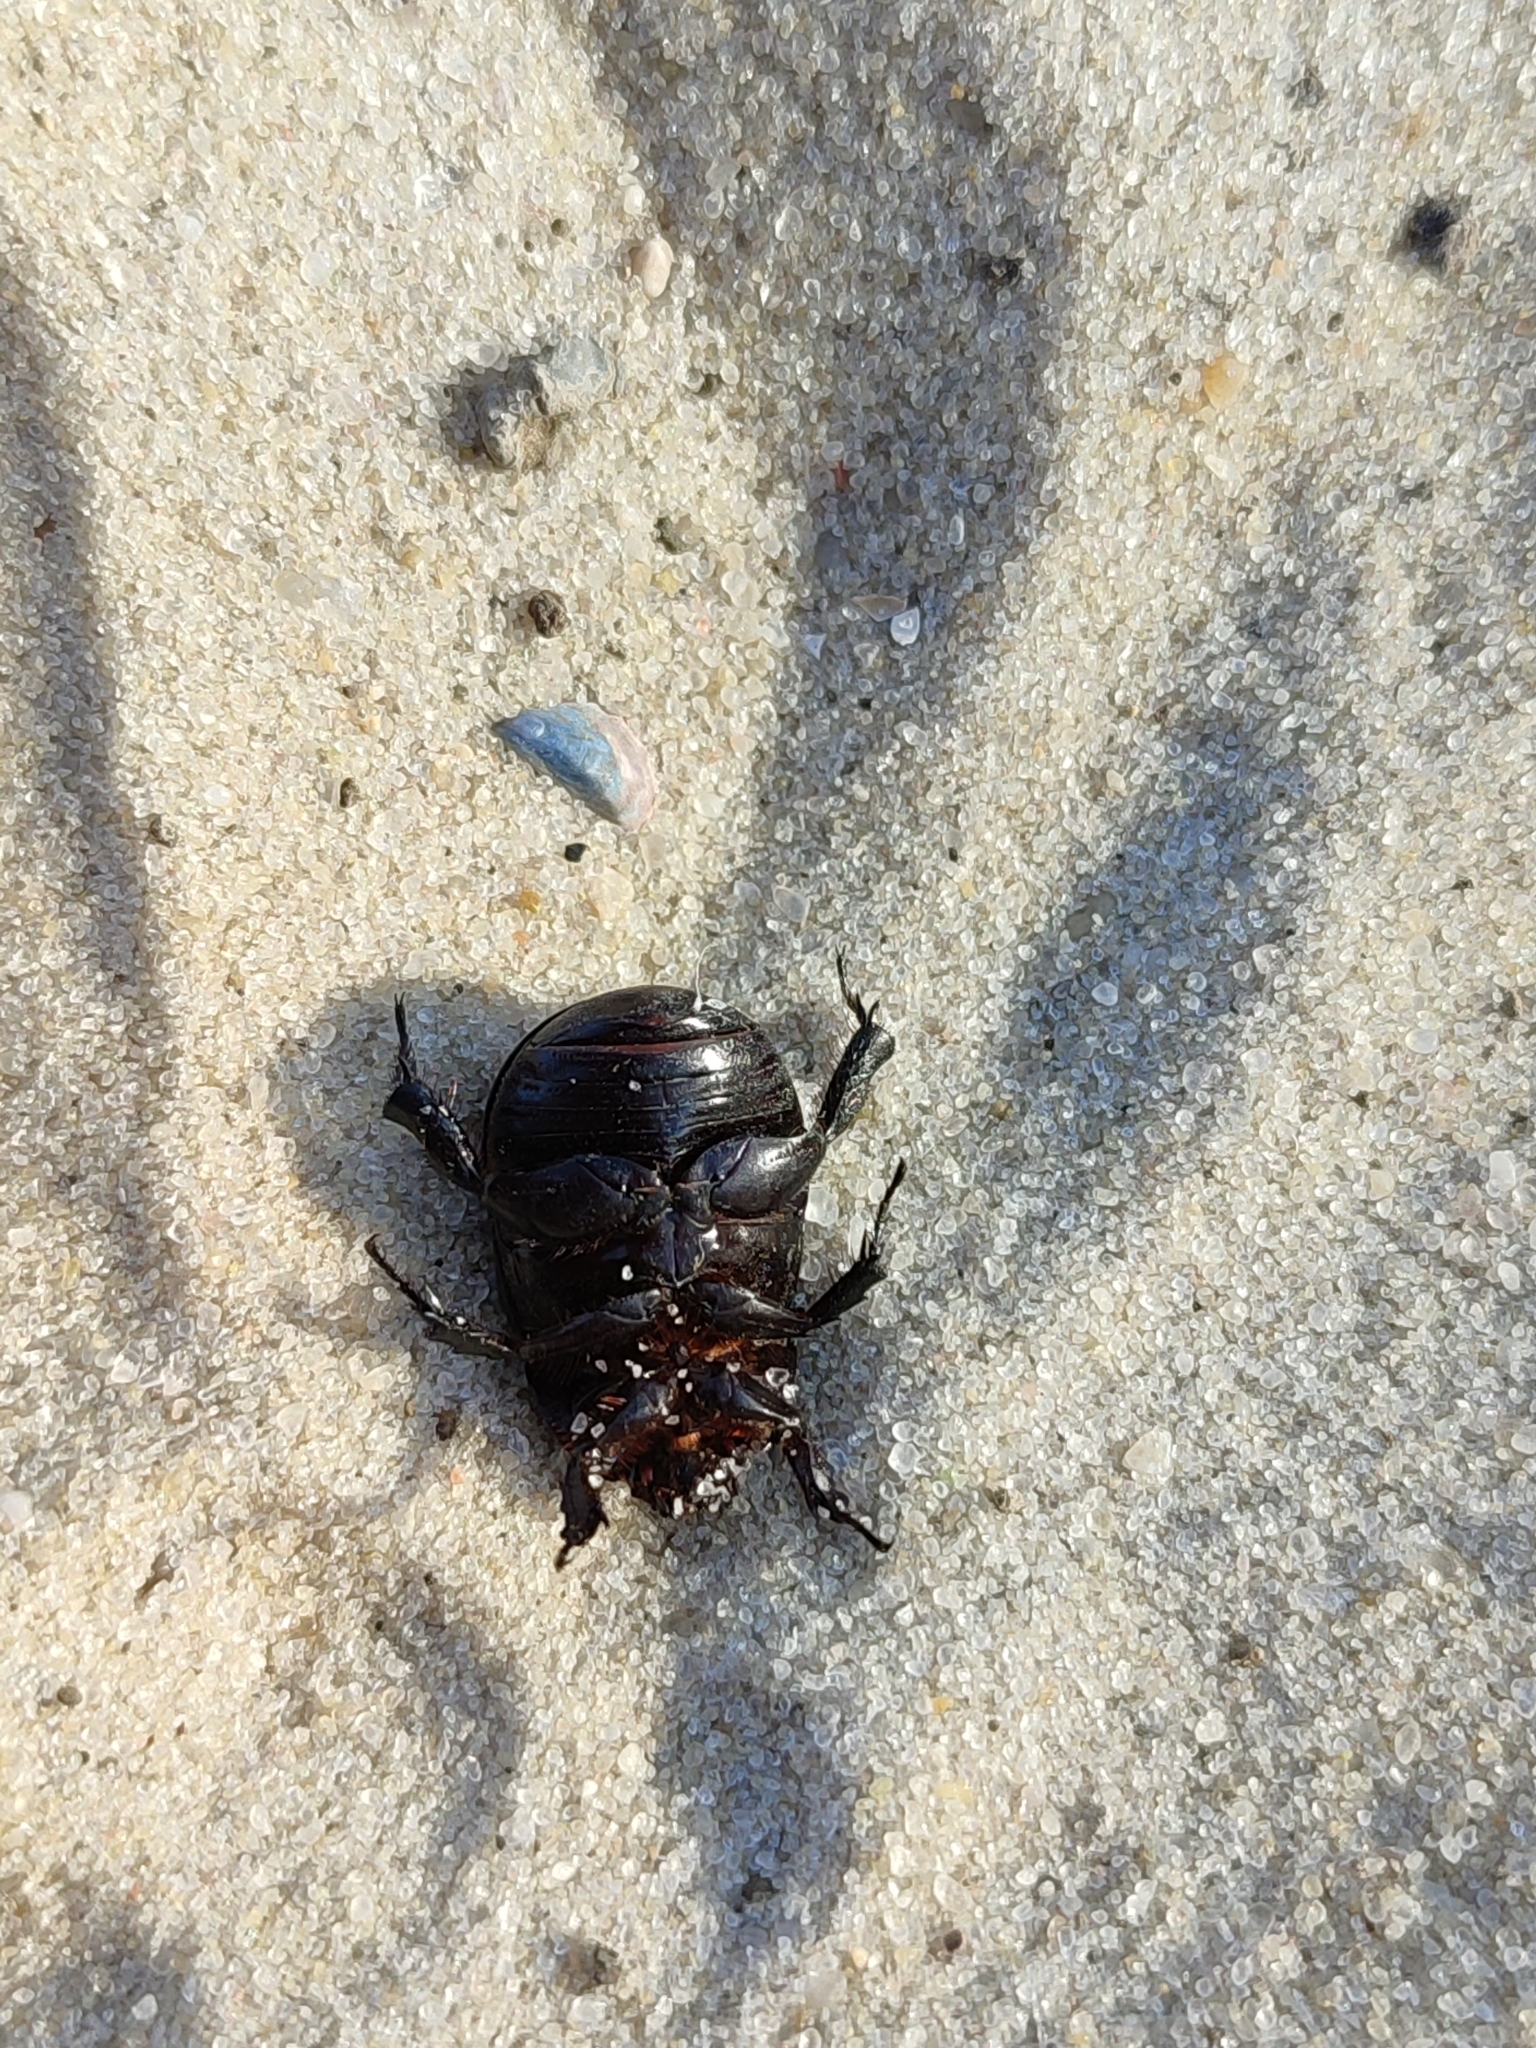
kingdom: Animalia
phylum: Arthropoda
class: Insecta
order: Coleoptera
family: Scarabaeidae
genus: Pentodon
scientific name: Pentodon idiota
